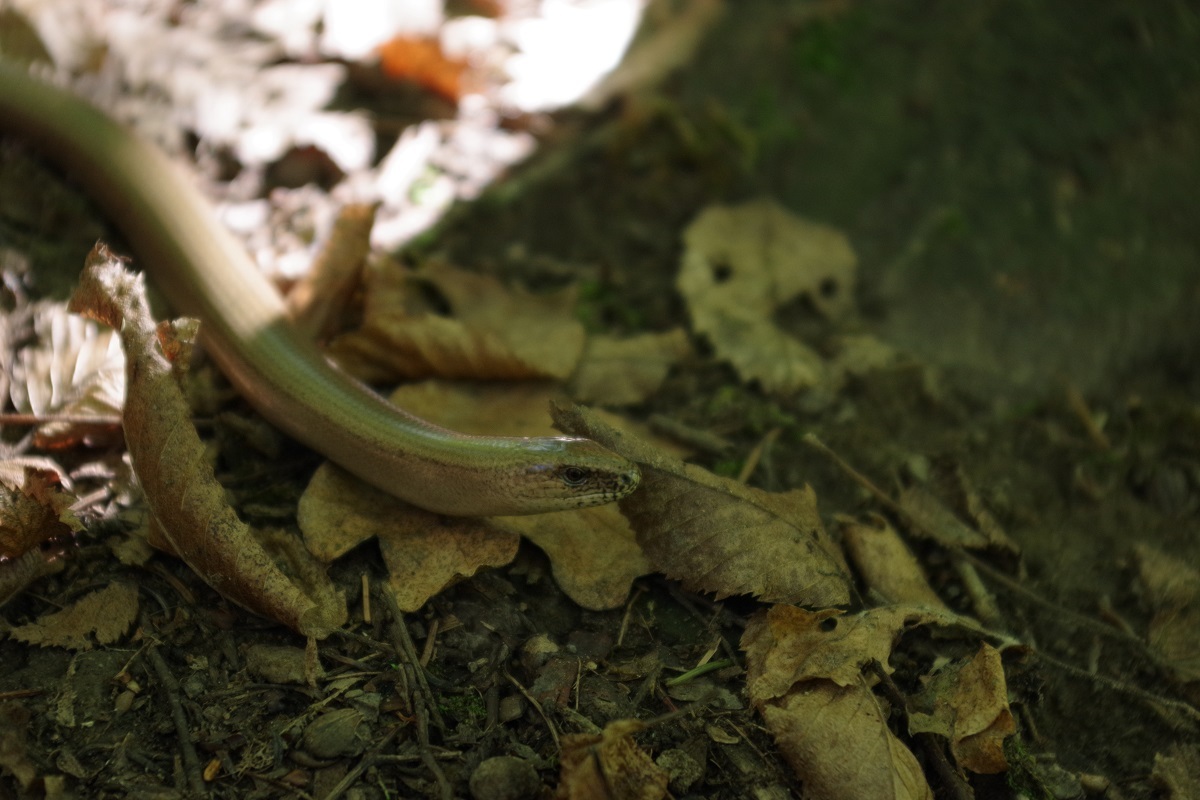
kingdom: Animalia
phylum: Chordata
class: Squamata
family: Anguidae
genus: Anguis
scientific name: Anguis fragilis
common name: Slow worm
